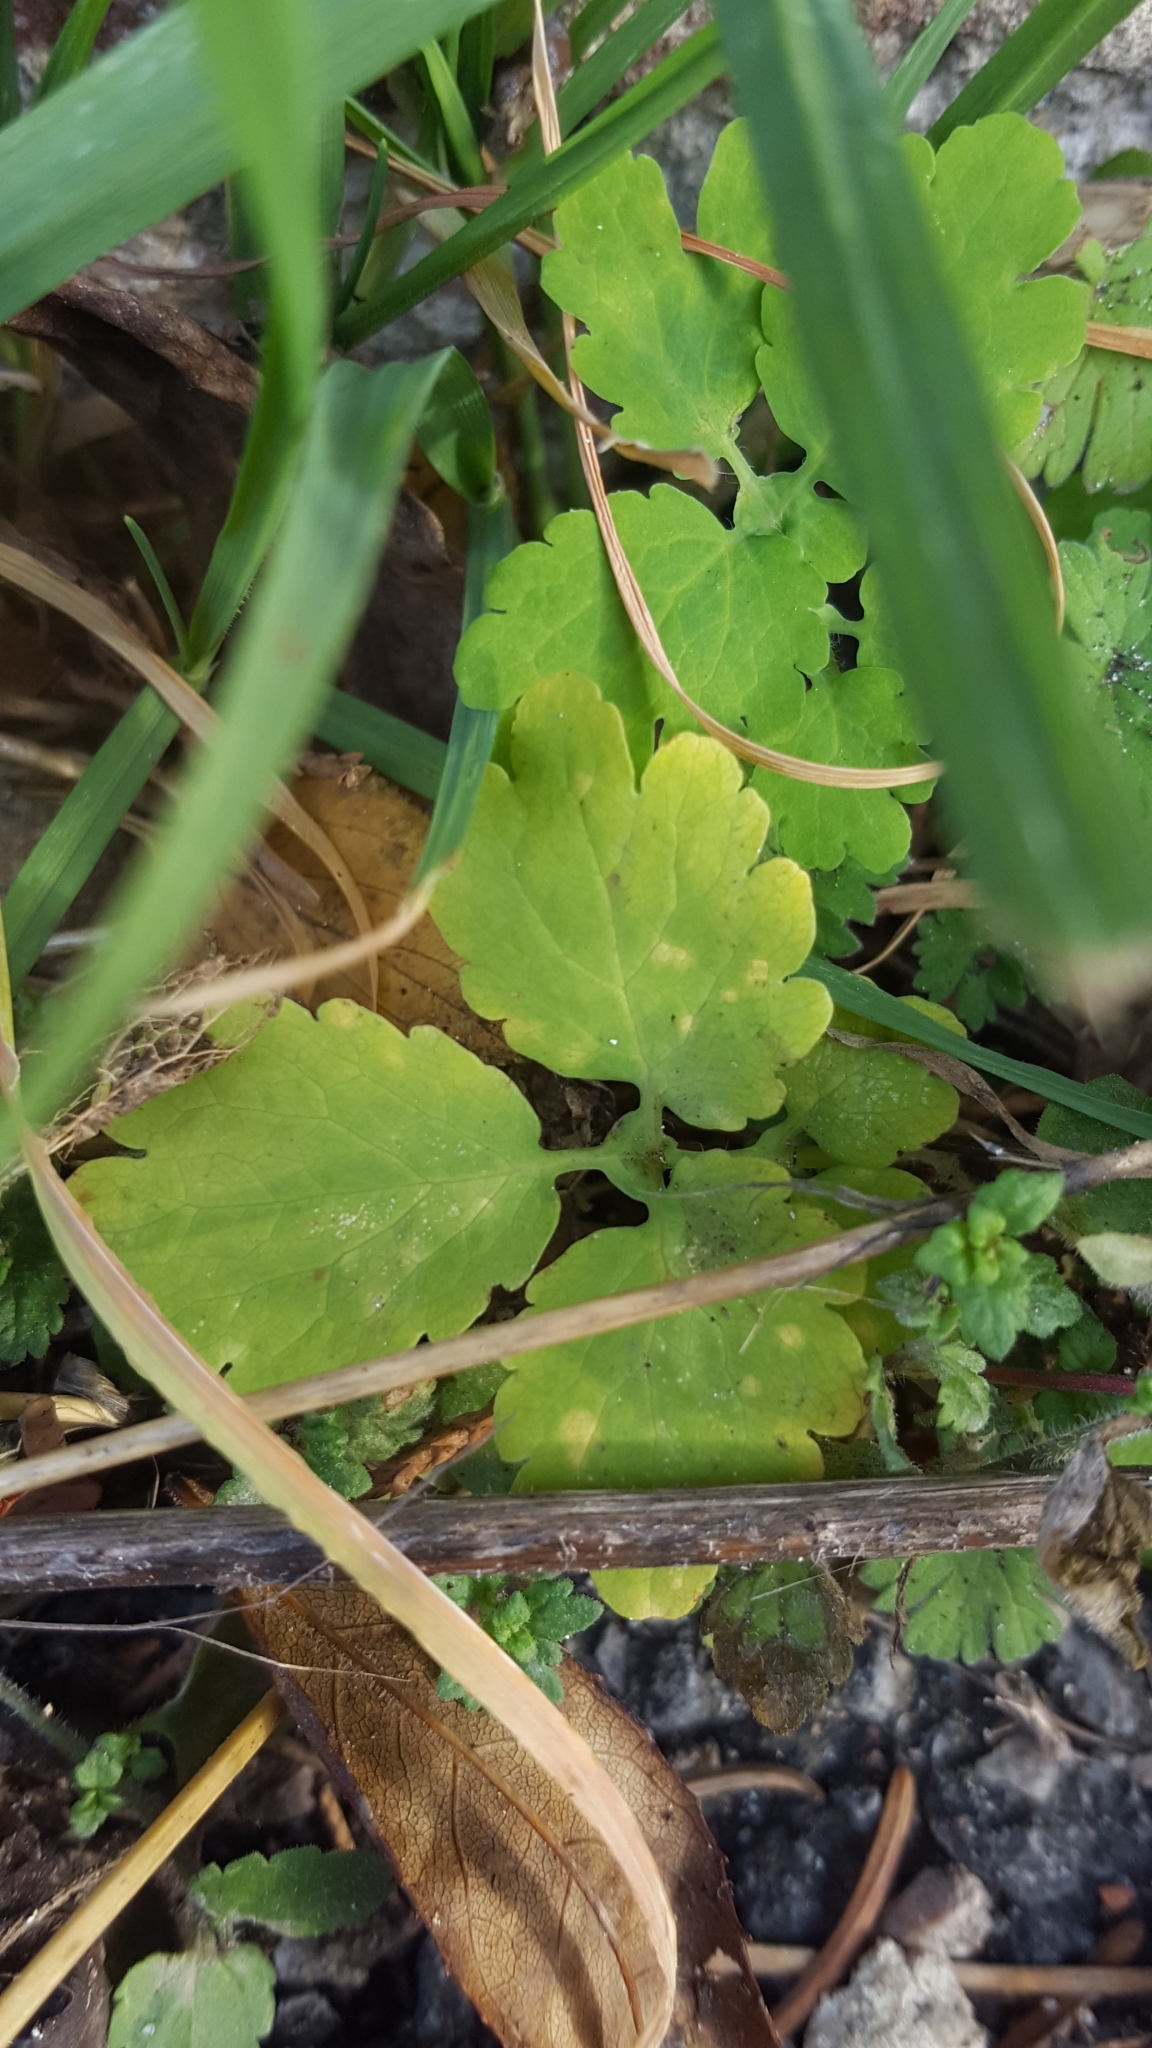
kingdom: Plantae
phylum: Tracheophyta
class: Magnoliopsida
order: Ranunculales
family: Papaveraceae
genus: Chelidonium
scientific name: Chelidonium majus
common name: Greater celandine
